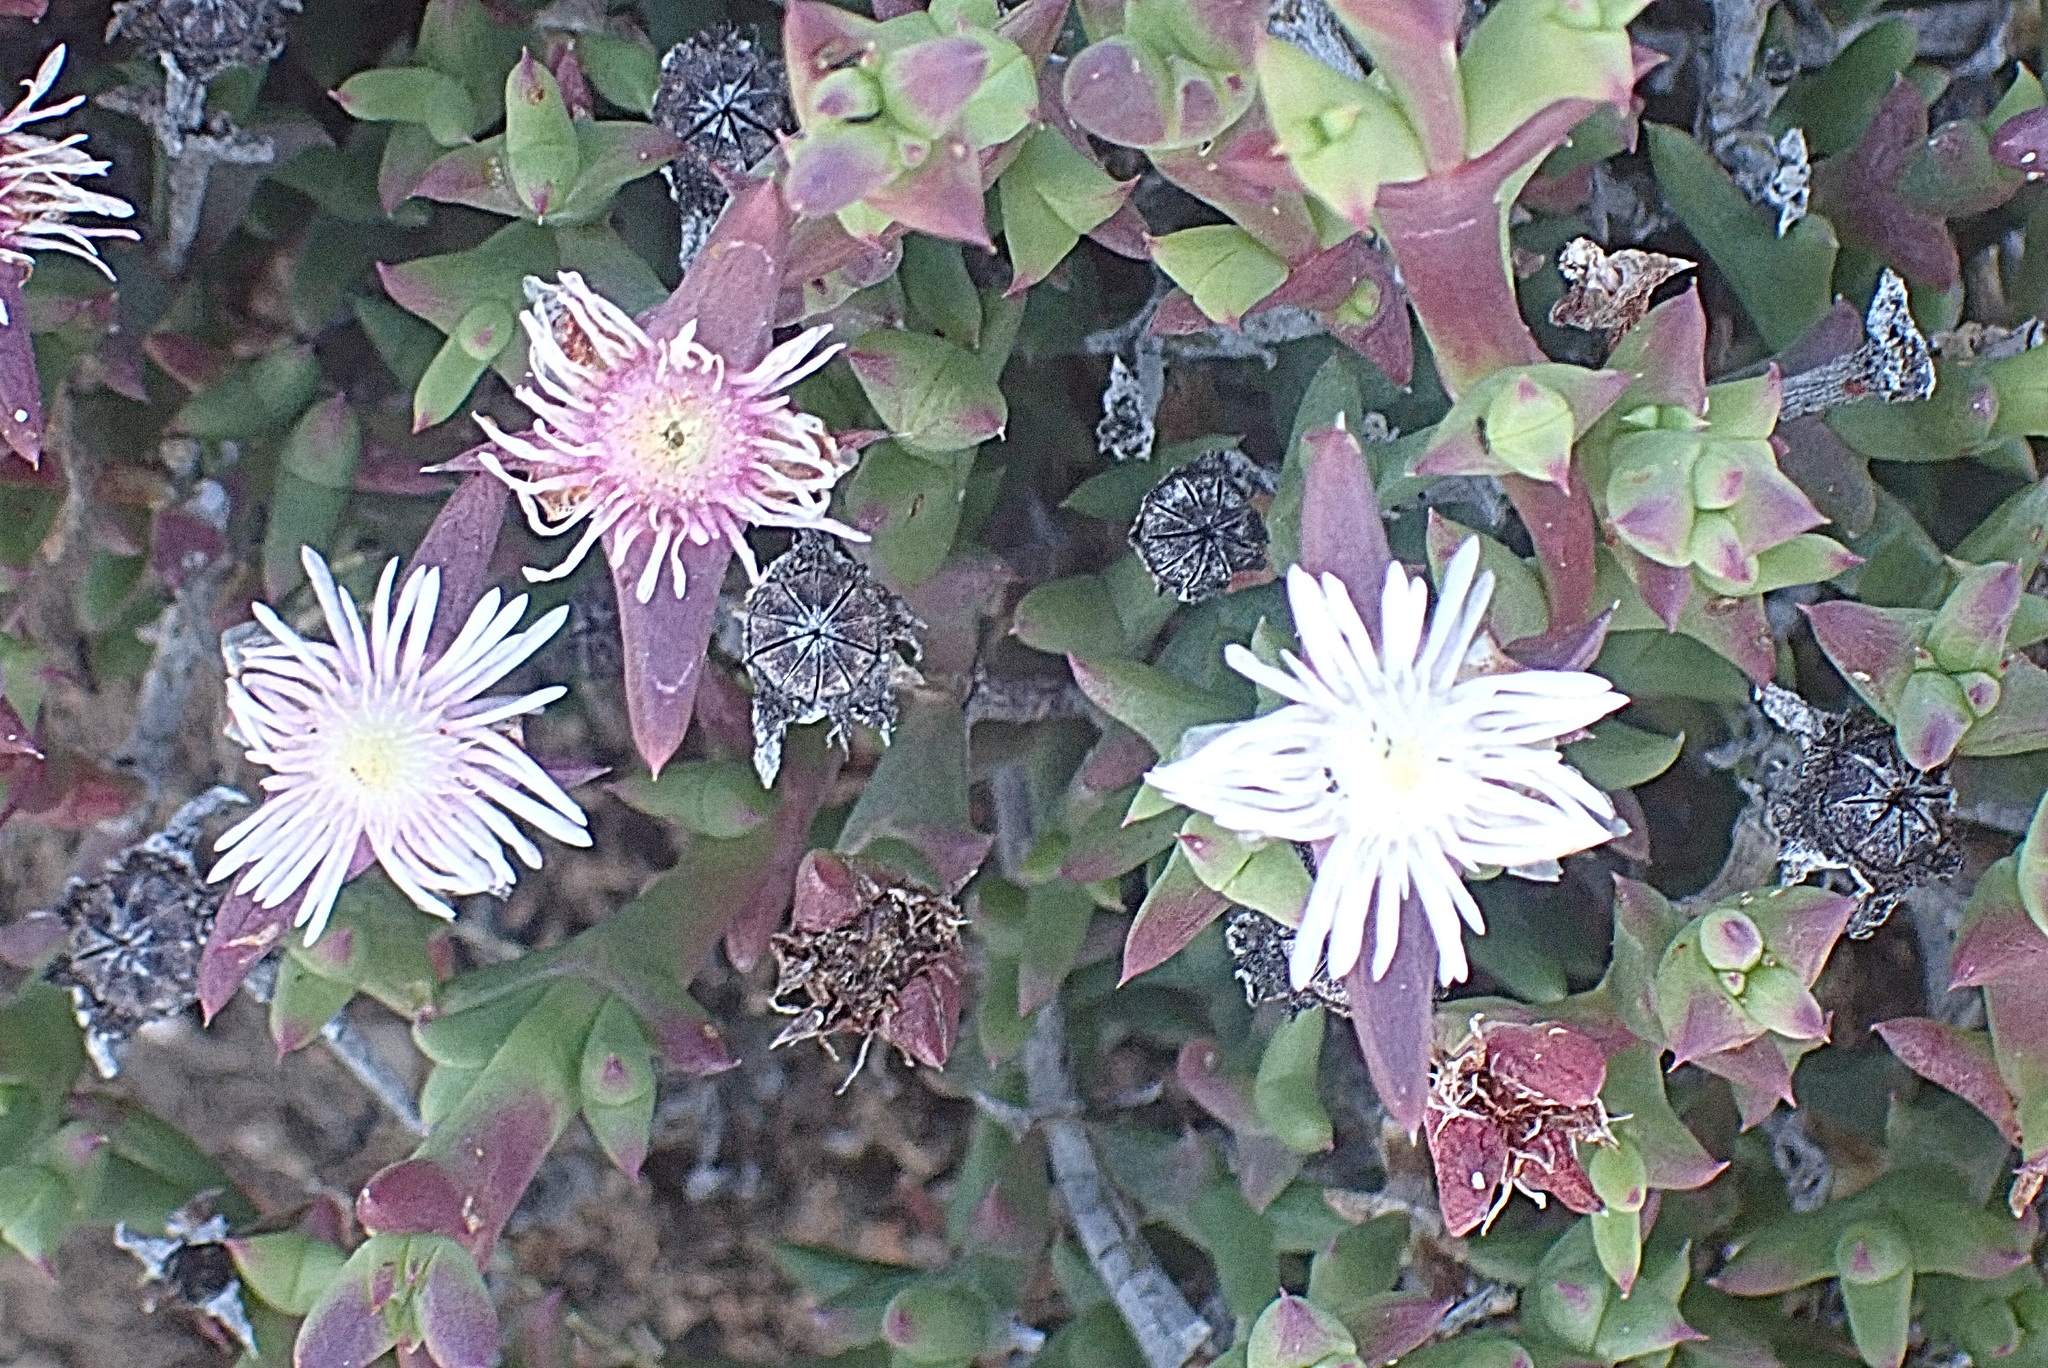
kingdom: Plantae
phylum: Tracheophyta
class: Magnoliopsida
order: Caryophyllales
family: Aizoaceae
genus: Smicrostigma
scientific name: Smicrostigma viride
